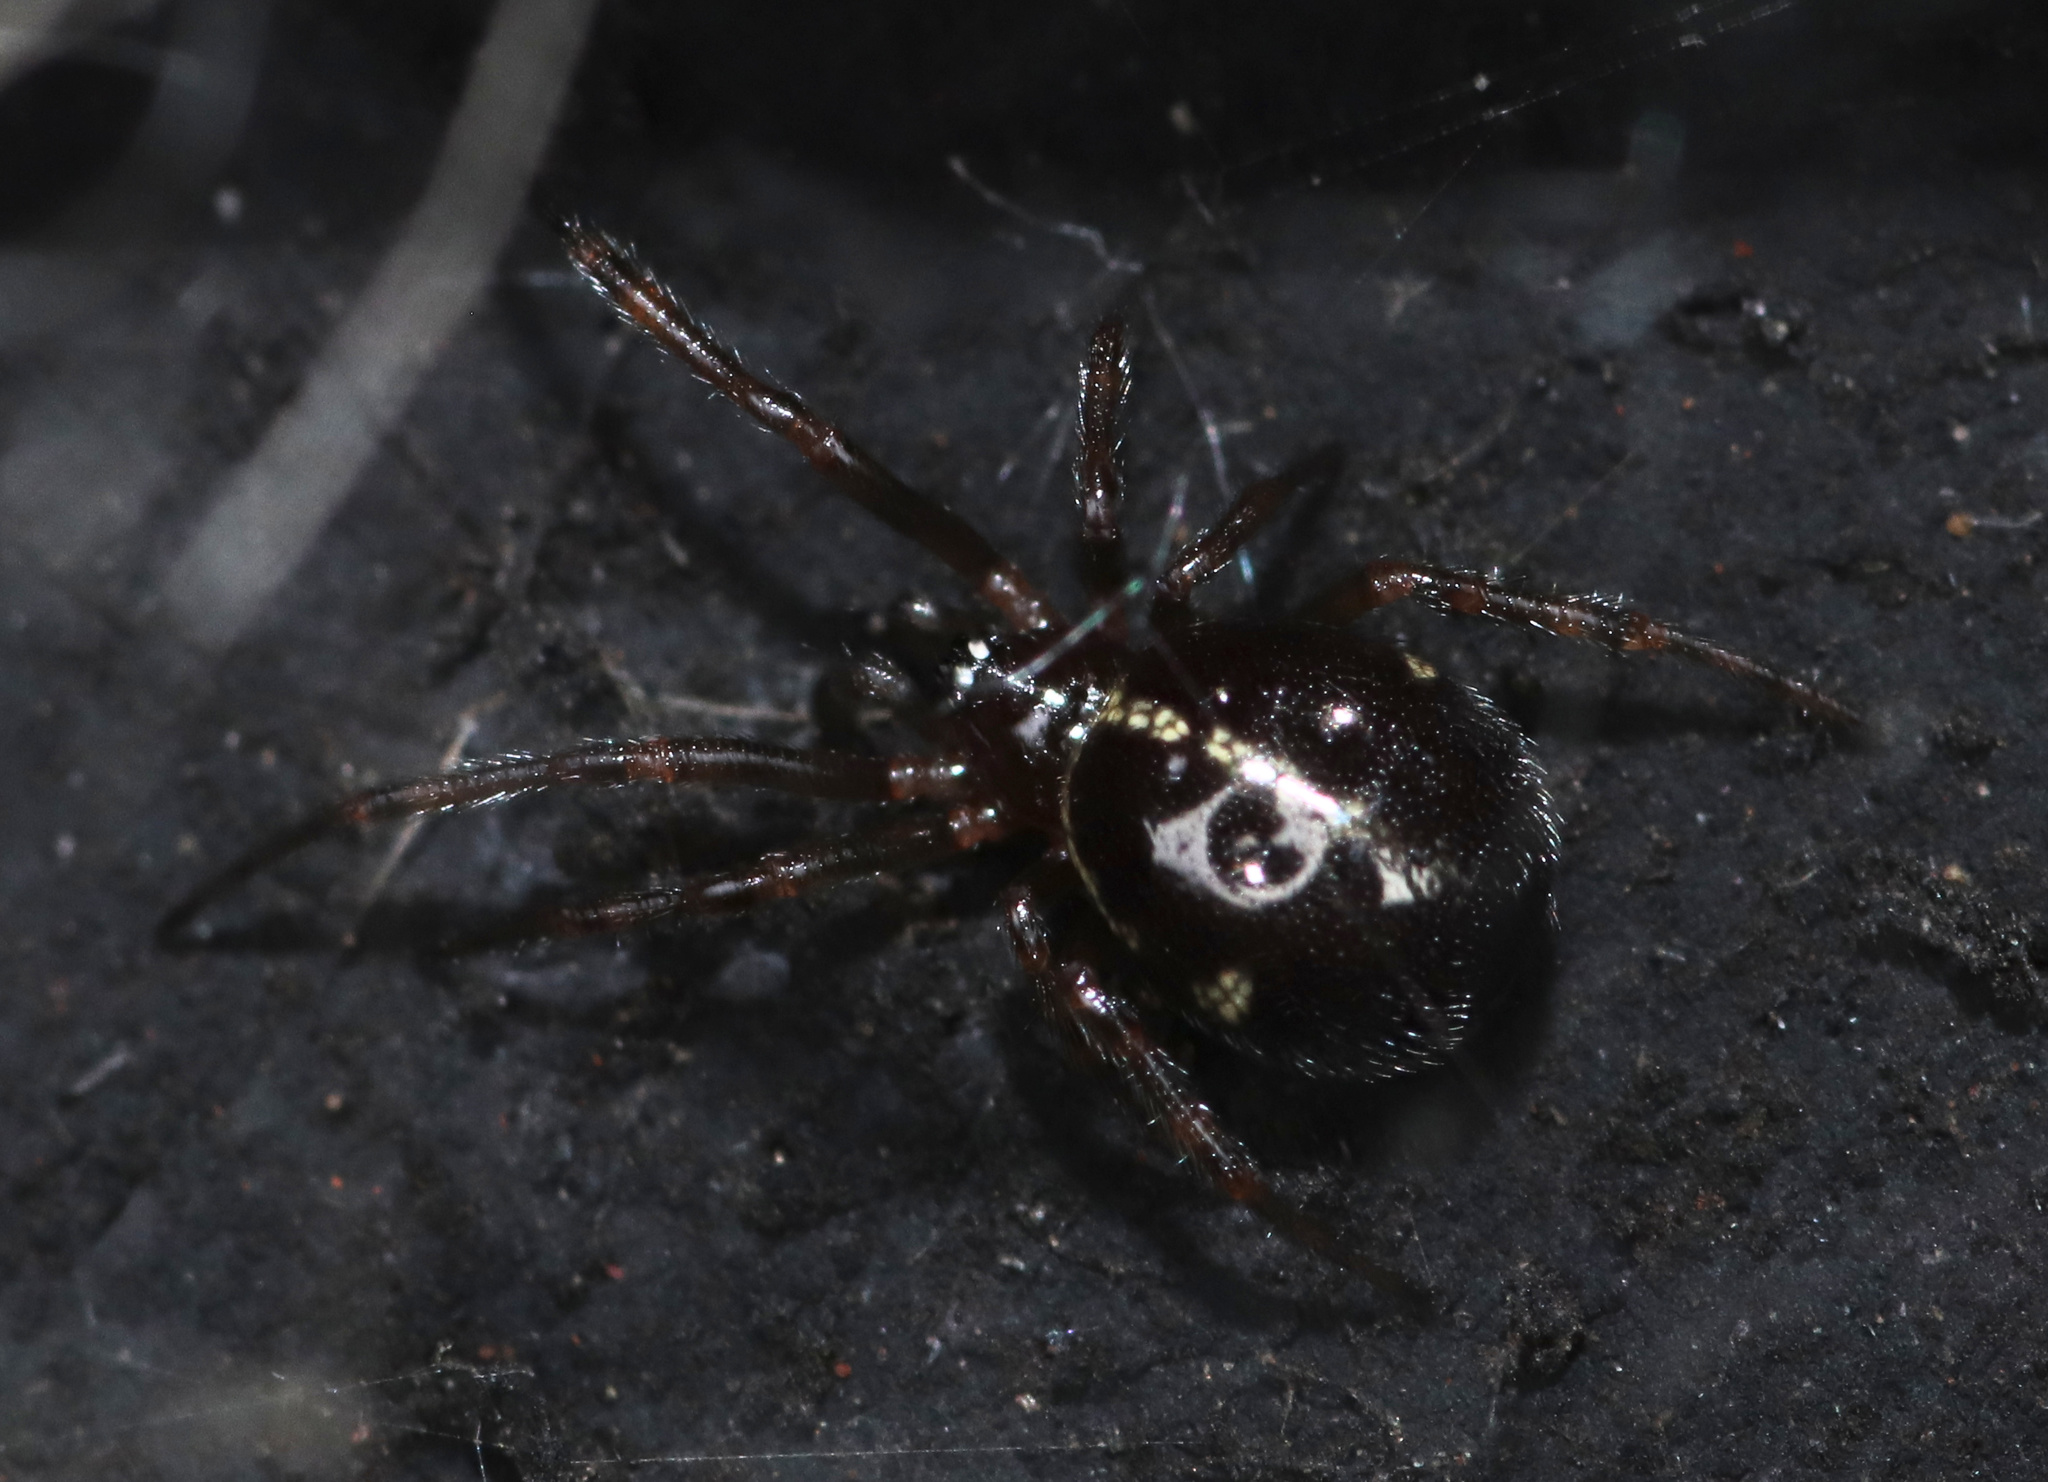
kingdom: Animalia
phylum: Arthropoda
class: Arachnida
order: Araneae
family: Theridiidae
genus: Steatoda
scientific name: Steatoda borealis
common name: Boreal combfoot
